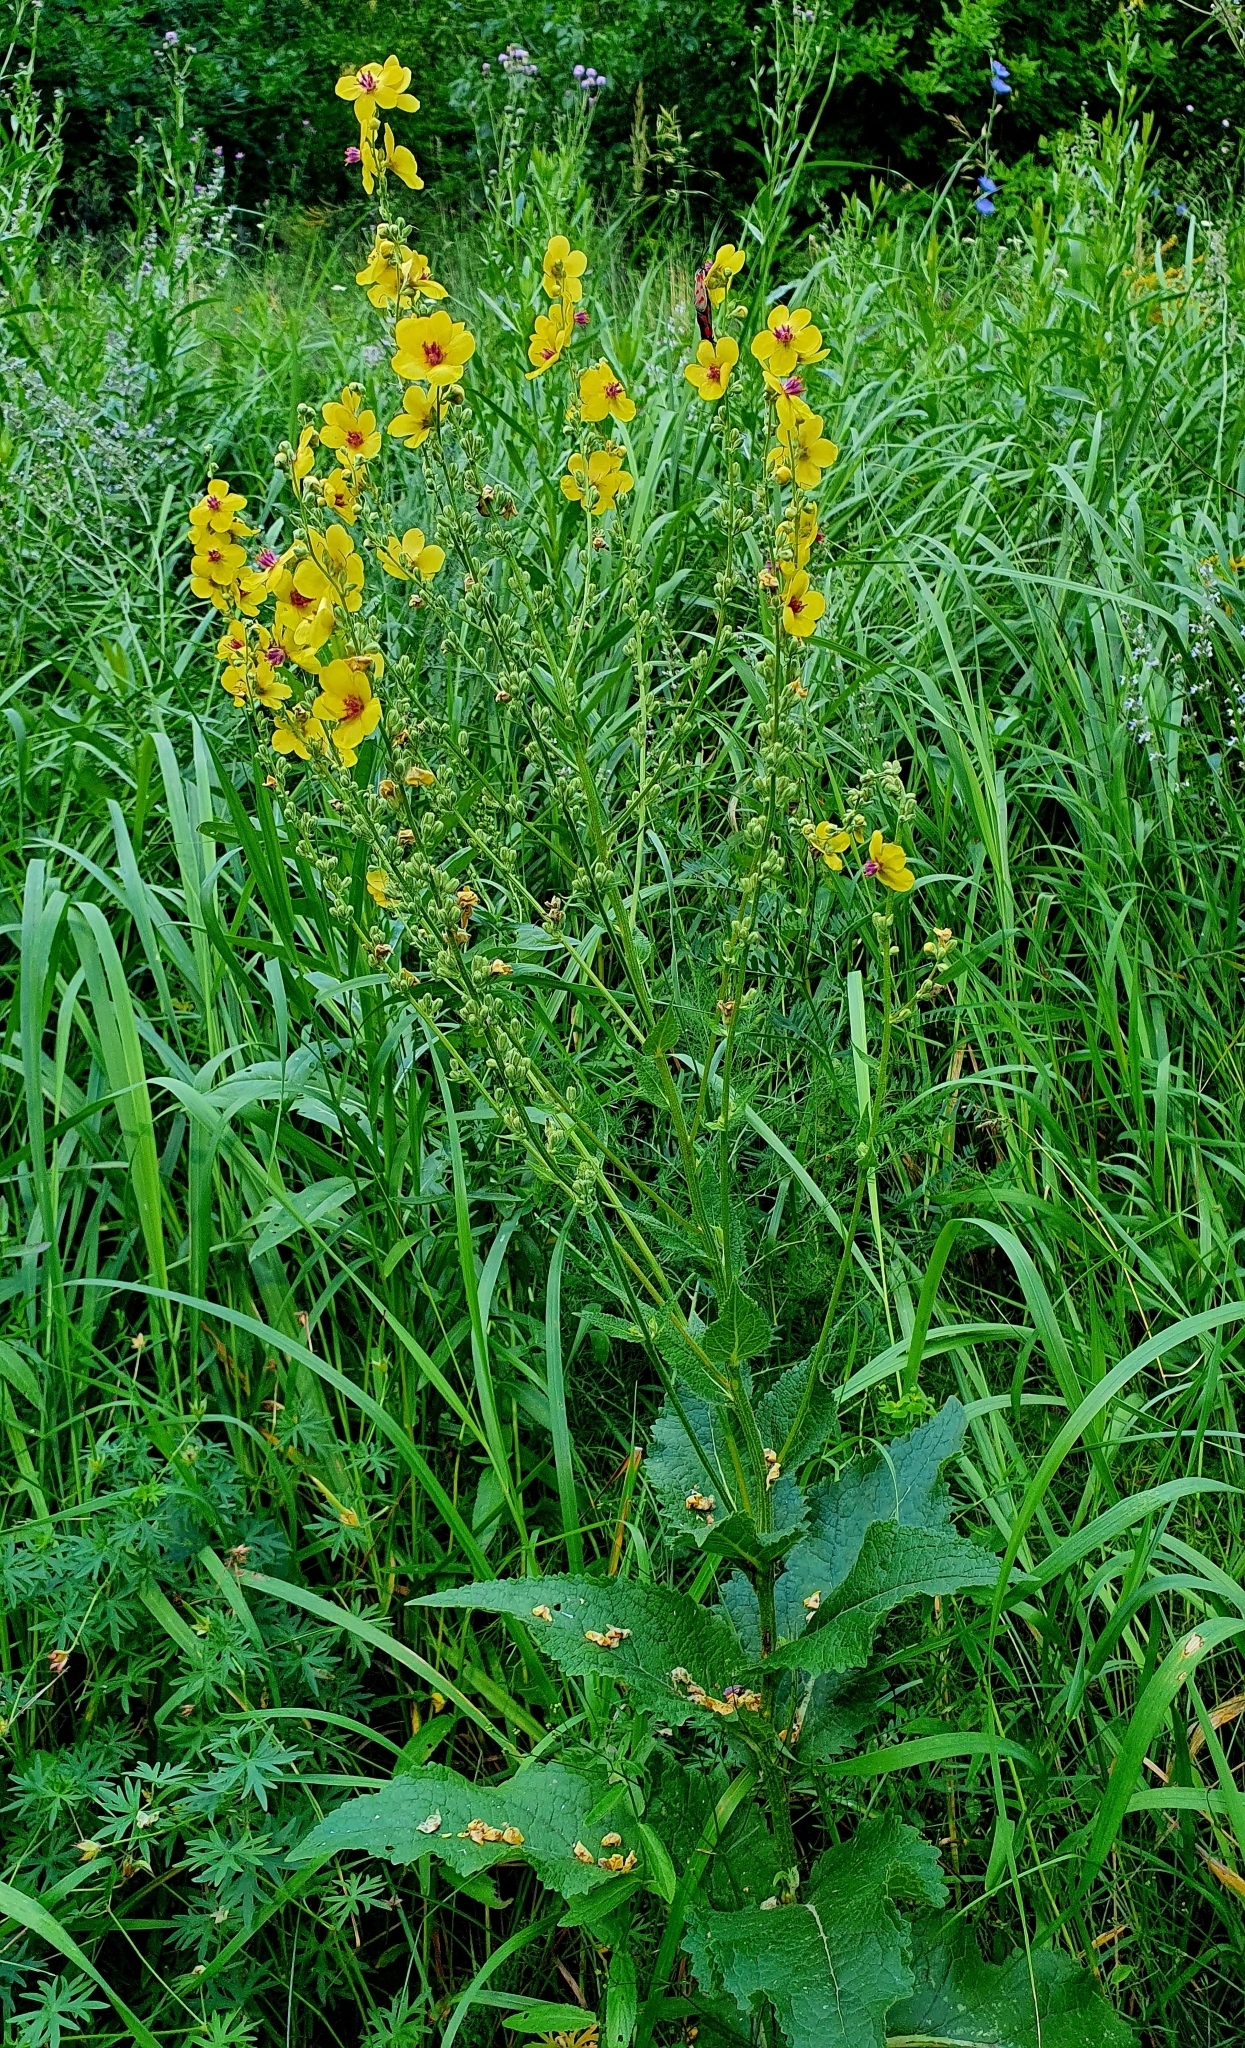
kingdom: Plantae
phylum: Tracheophyta
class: Magnoliopsida
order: Lamiales
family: Scrophulariaceae
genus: Verbascum
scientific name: Verbascum chaixii
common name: Nettle-leaved mullein
